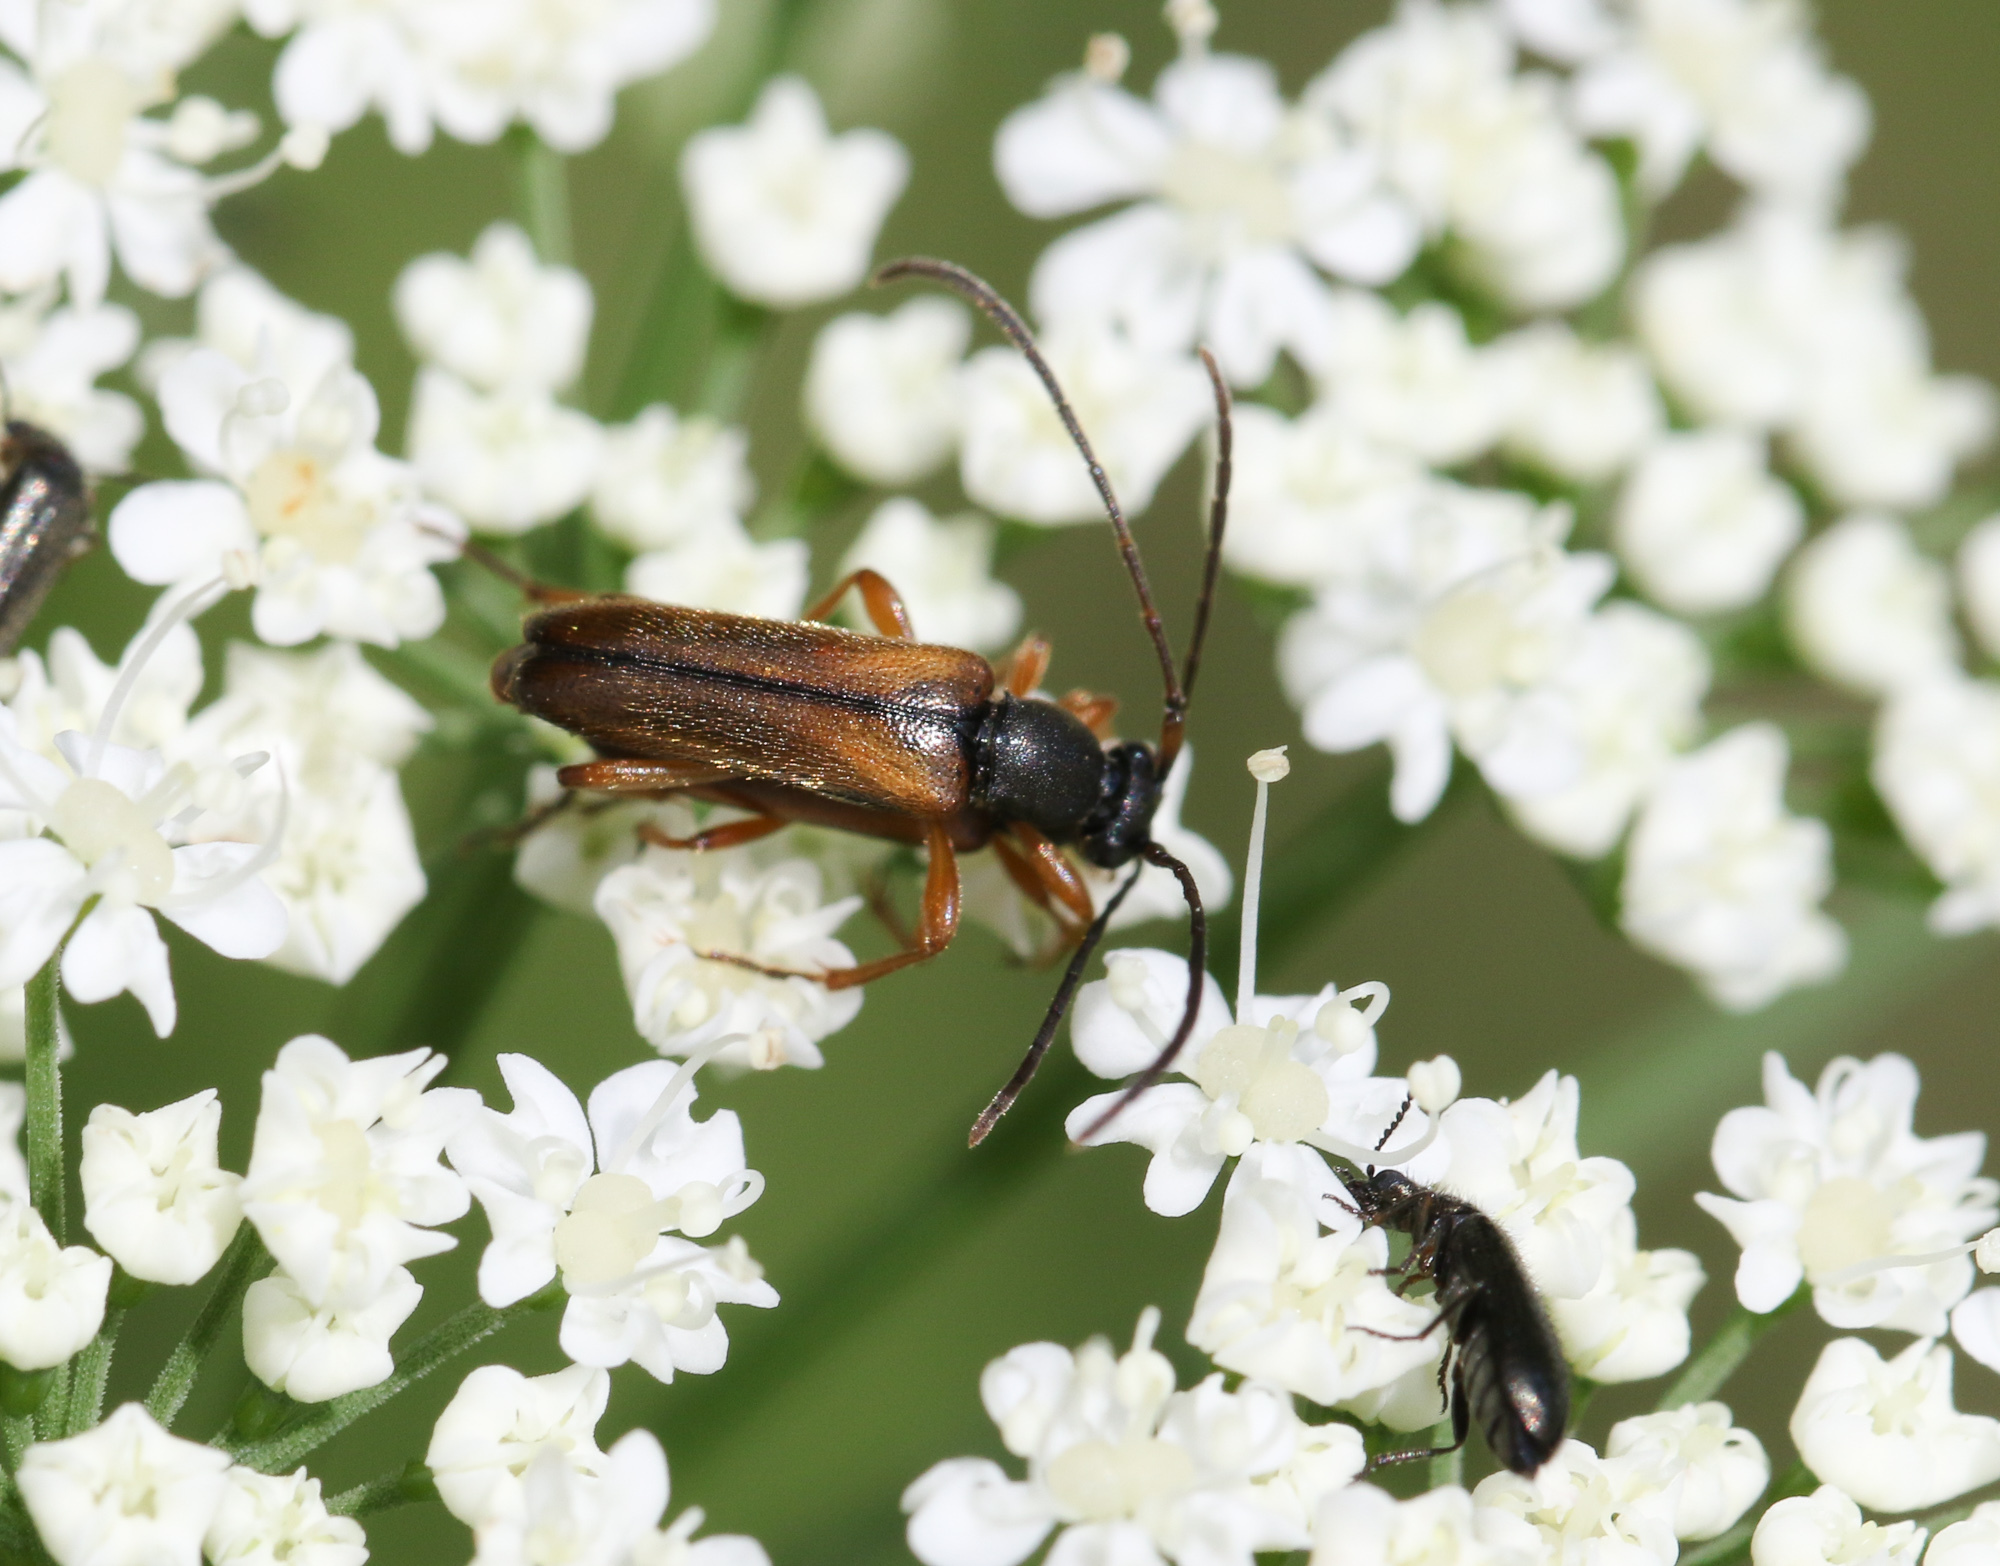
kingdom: Animalia
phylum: Arthropoda
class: Insecta
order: Coleoptera
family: Cerambycidae
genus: Alosterna
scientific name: Alosterna tabacicolor
